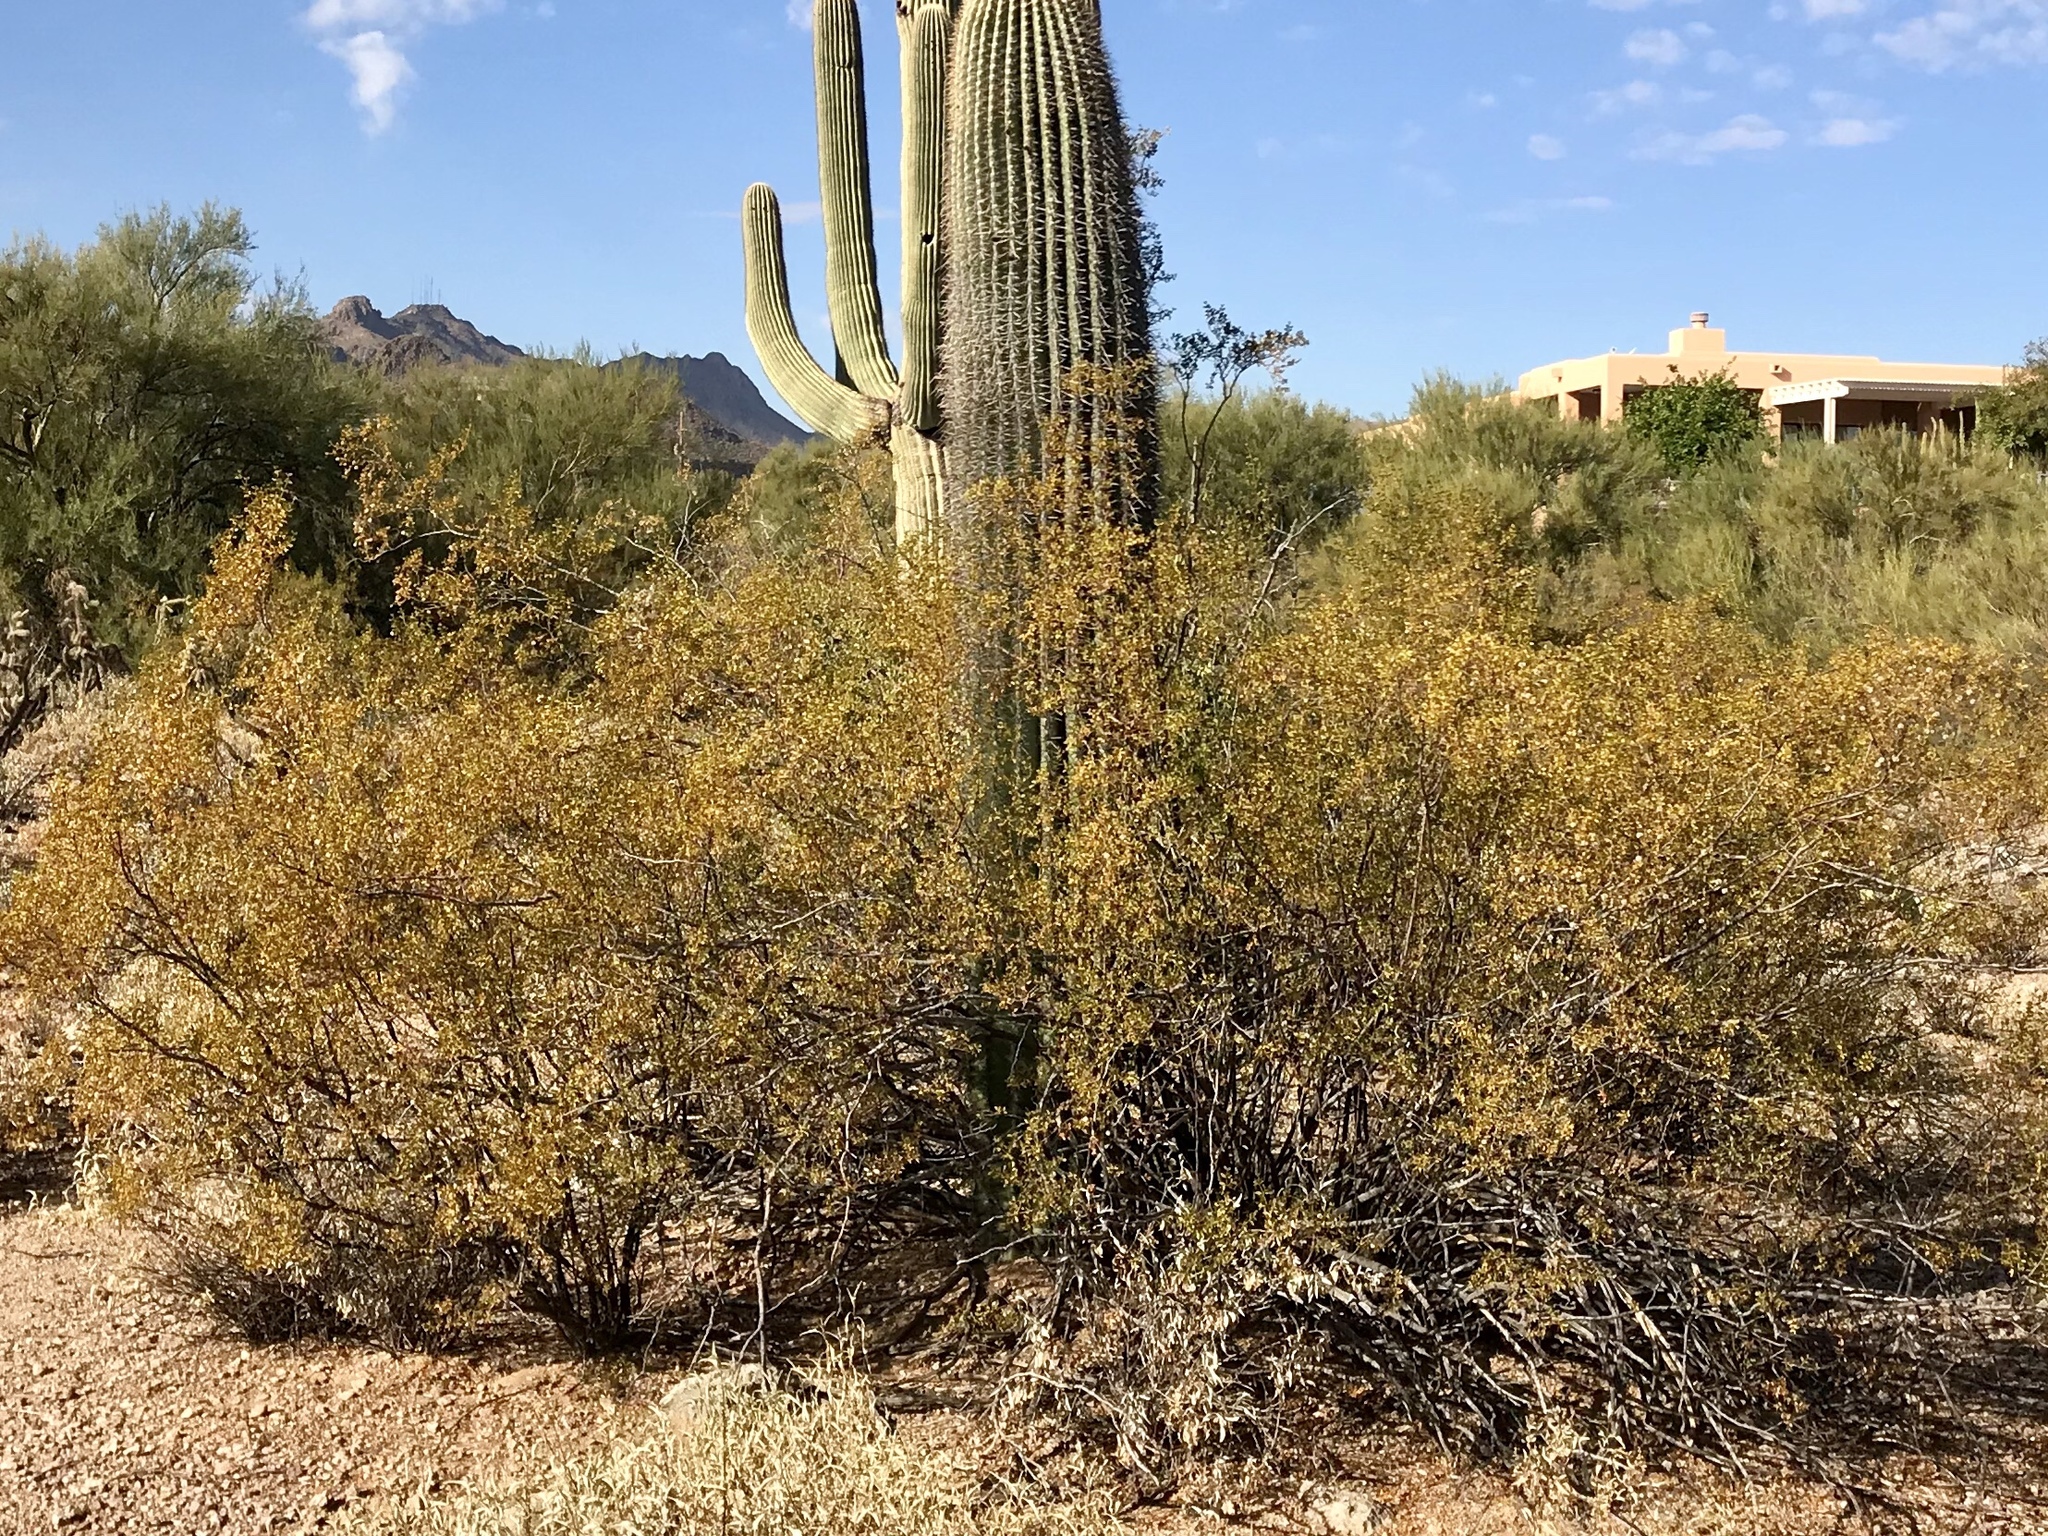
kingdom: Plantae
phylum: Tracheophyta
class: Magnoliopsida
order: Zygophyllales
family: Zygophyllaceae
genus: Larrea
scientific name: Larrea tridentata
